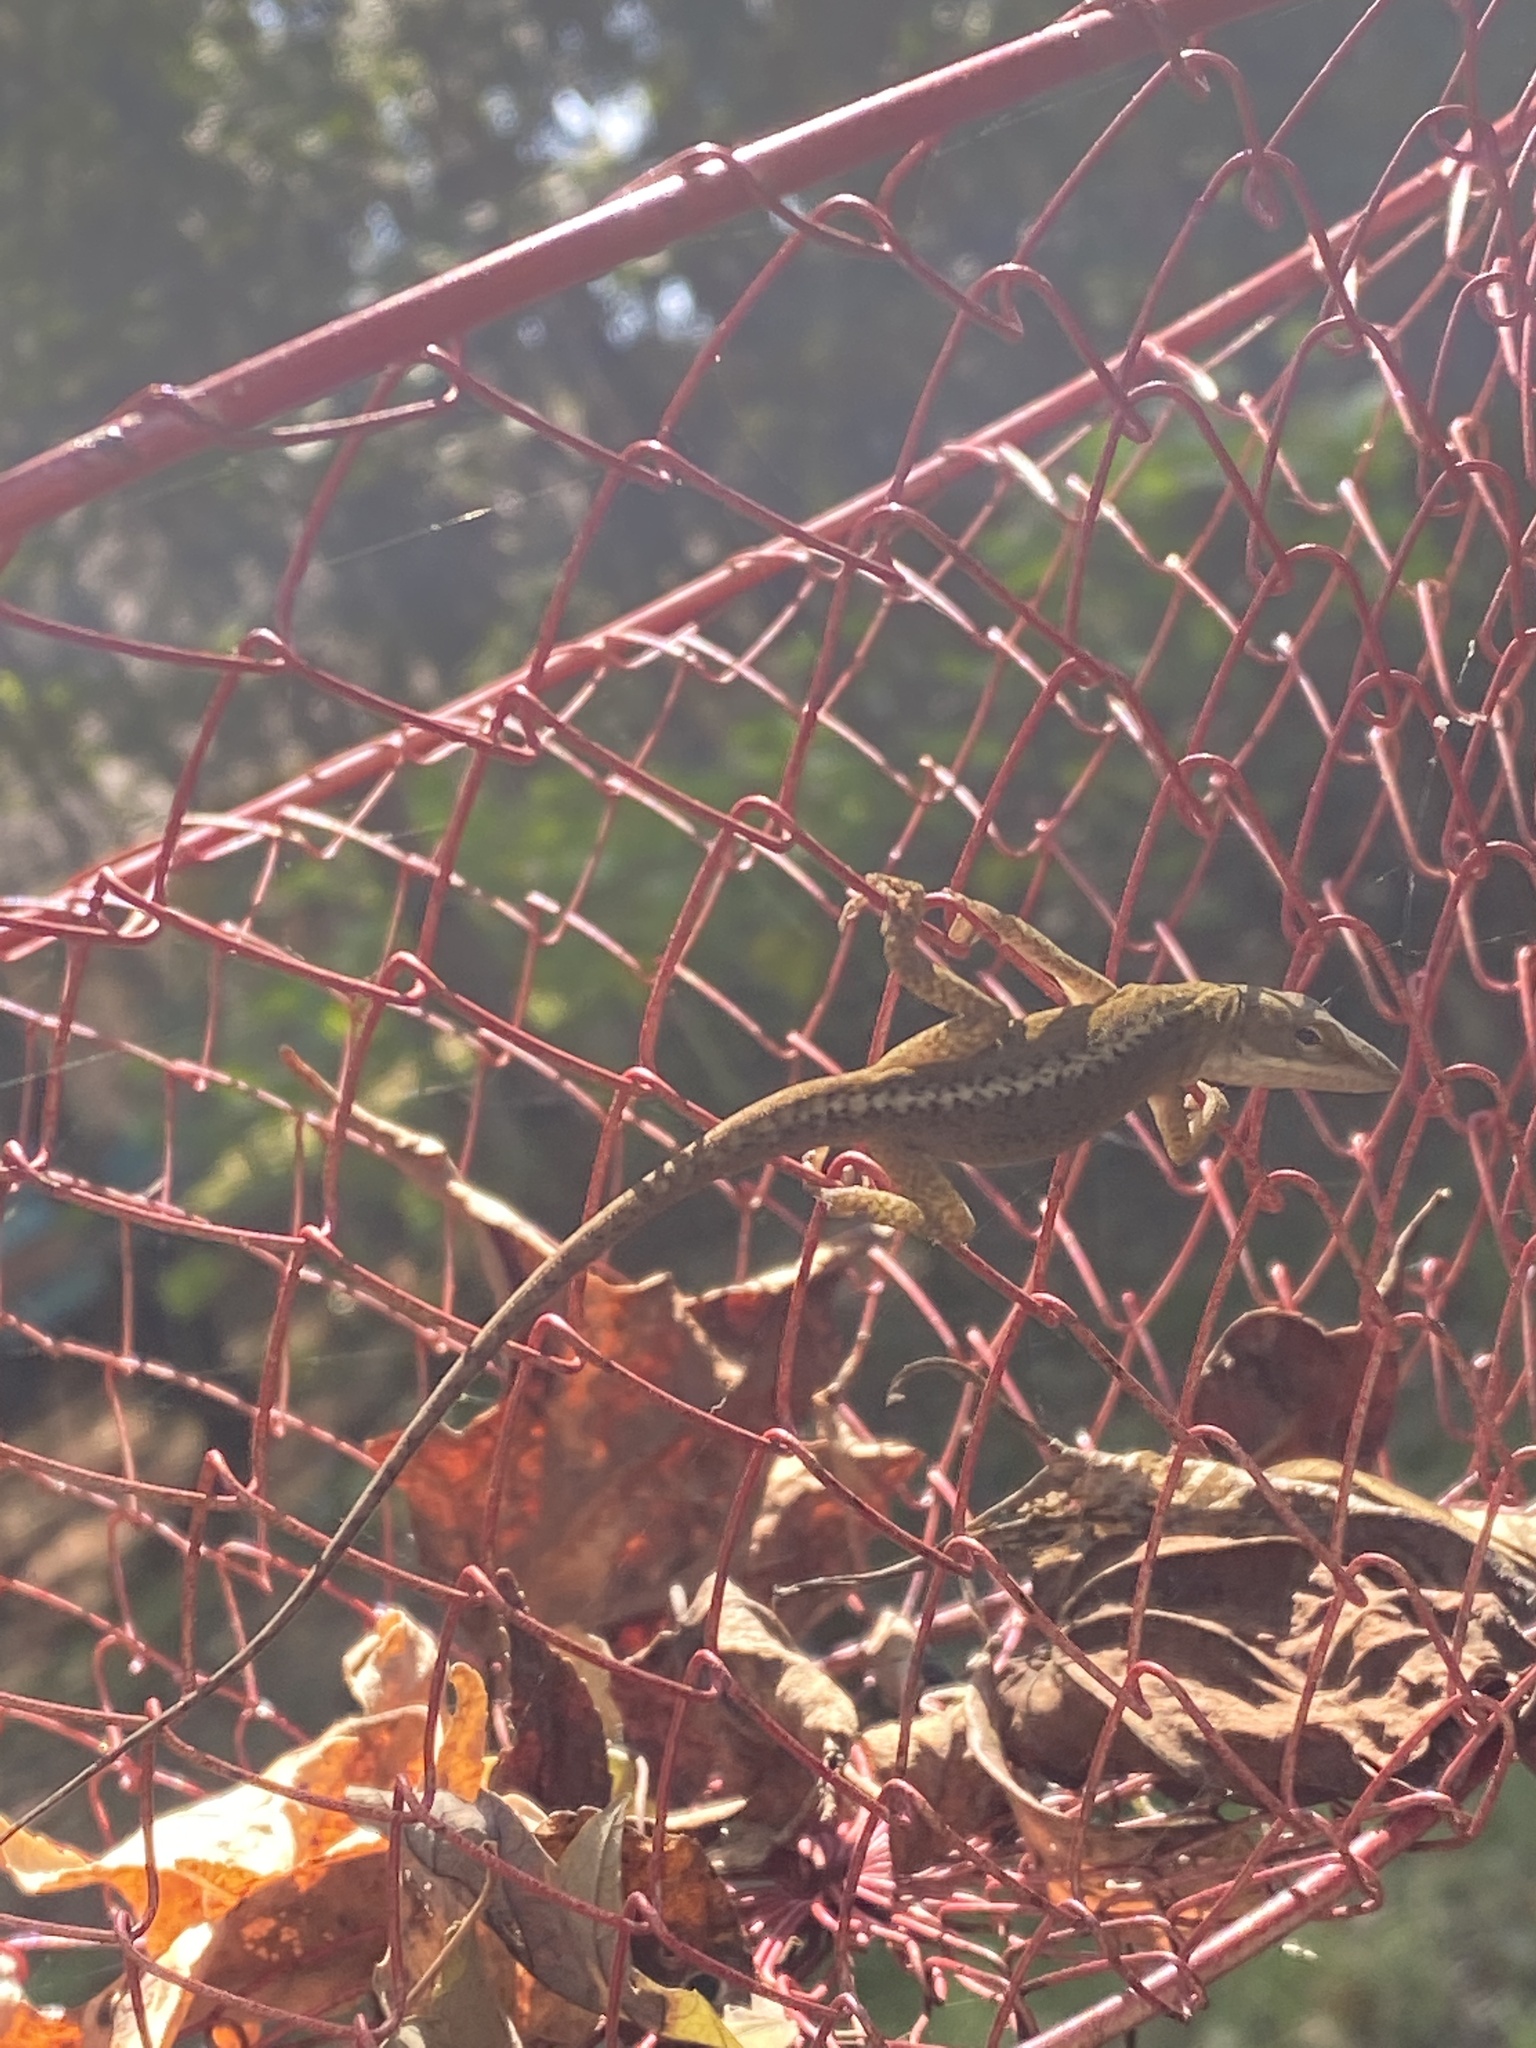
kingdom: Animalia
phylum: Chordata
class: Squamata
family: Dactyloidae
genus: Anolis
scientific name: Anolis carolinensis
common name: Green anole
